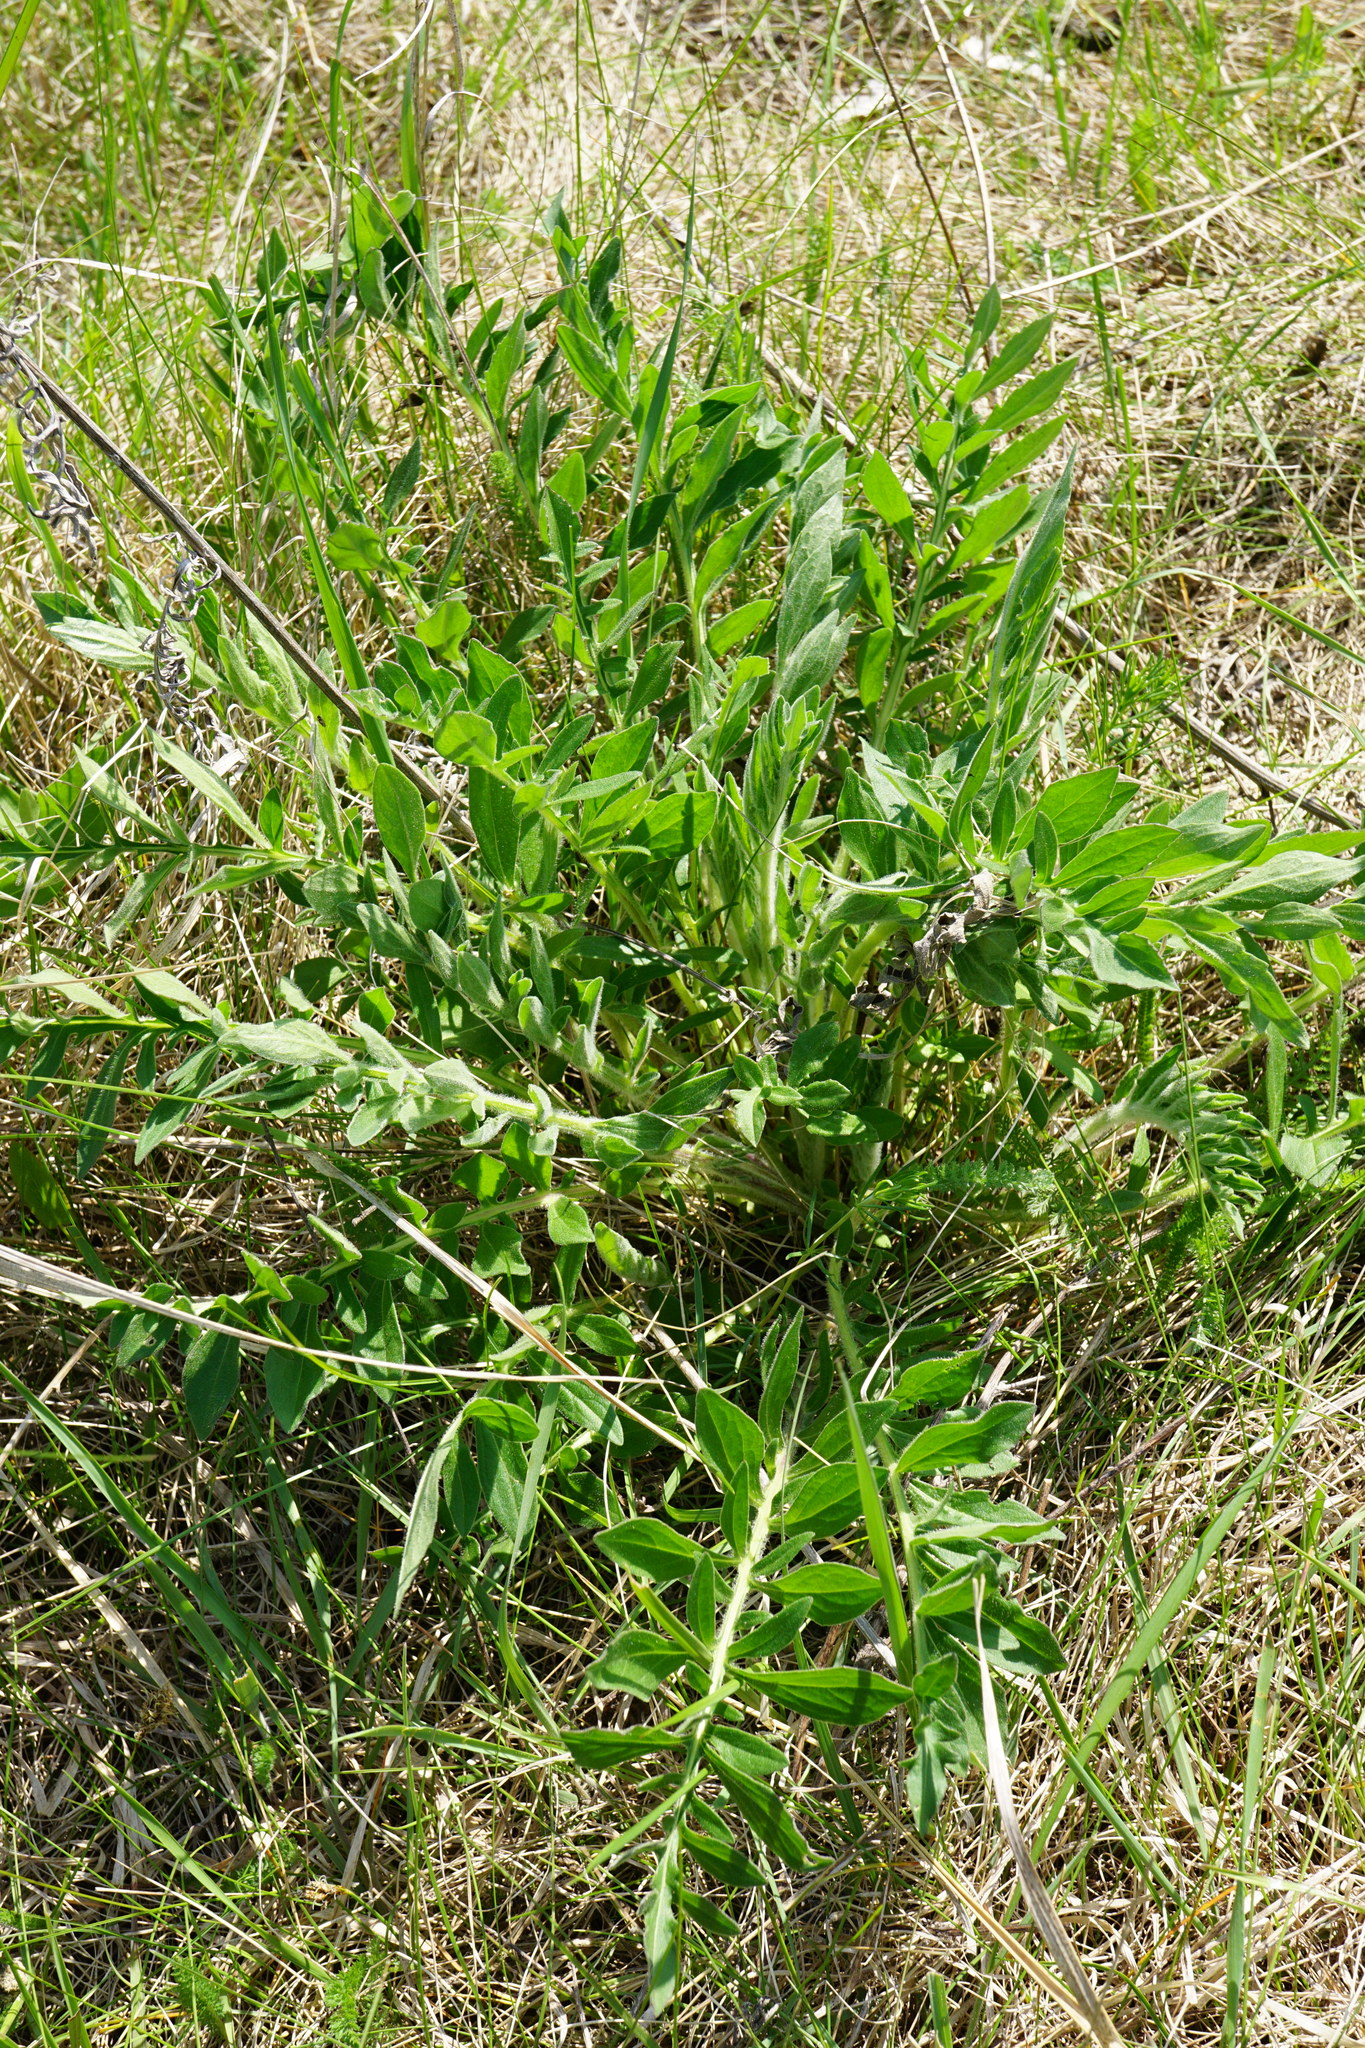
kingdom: Plantae
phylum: Tracheophyta
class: Magnoliopsida
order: Asterales
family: Asteraceae
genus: Centaurea
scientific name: Centaurea scabiosa
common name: Greater knapweed
